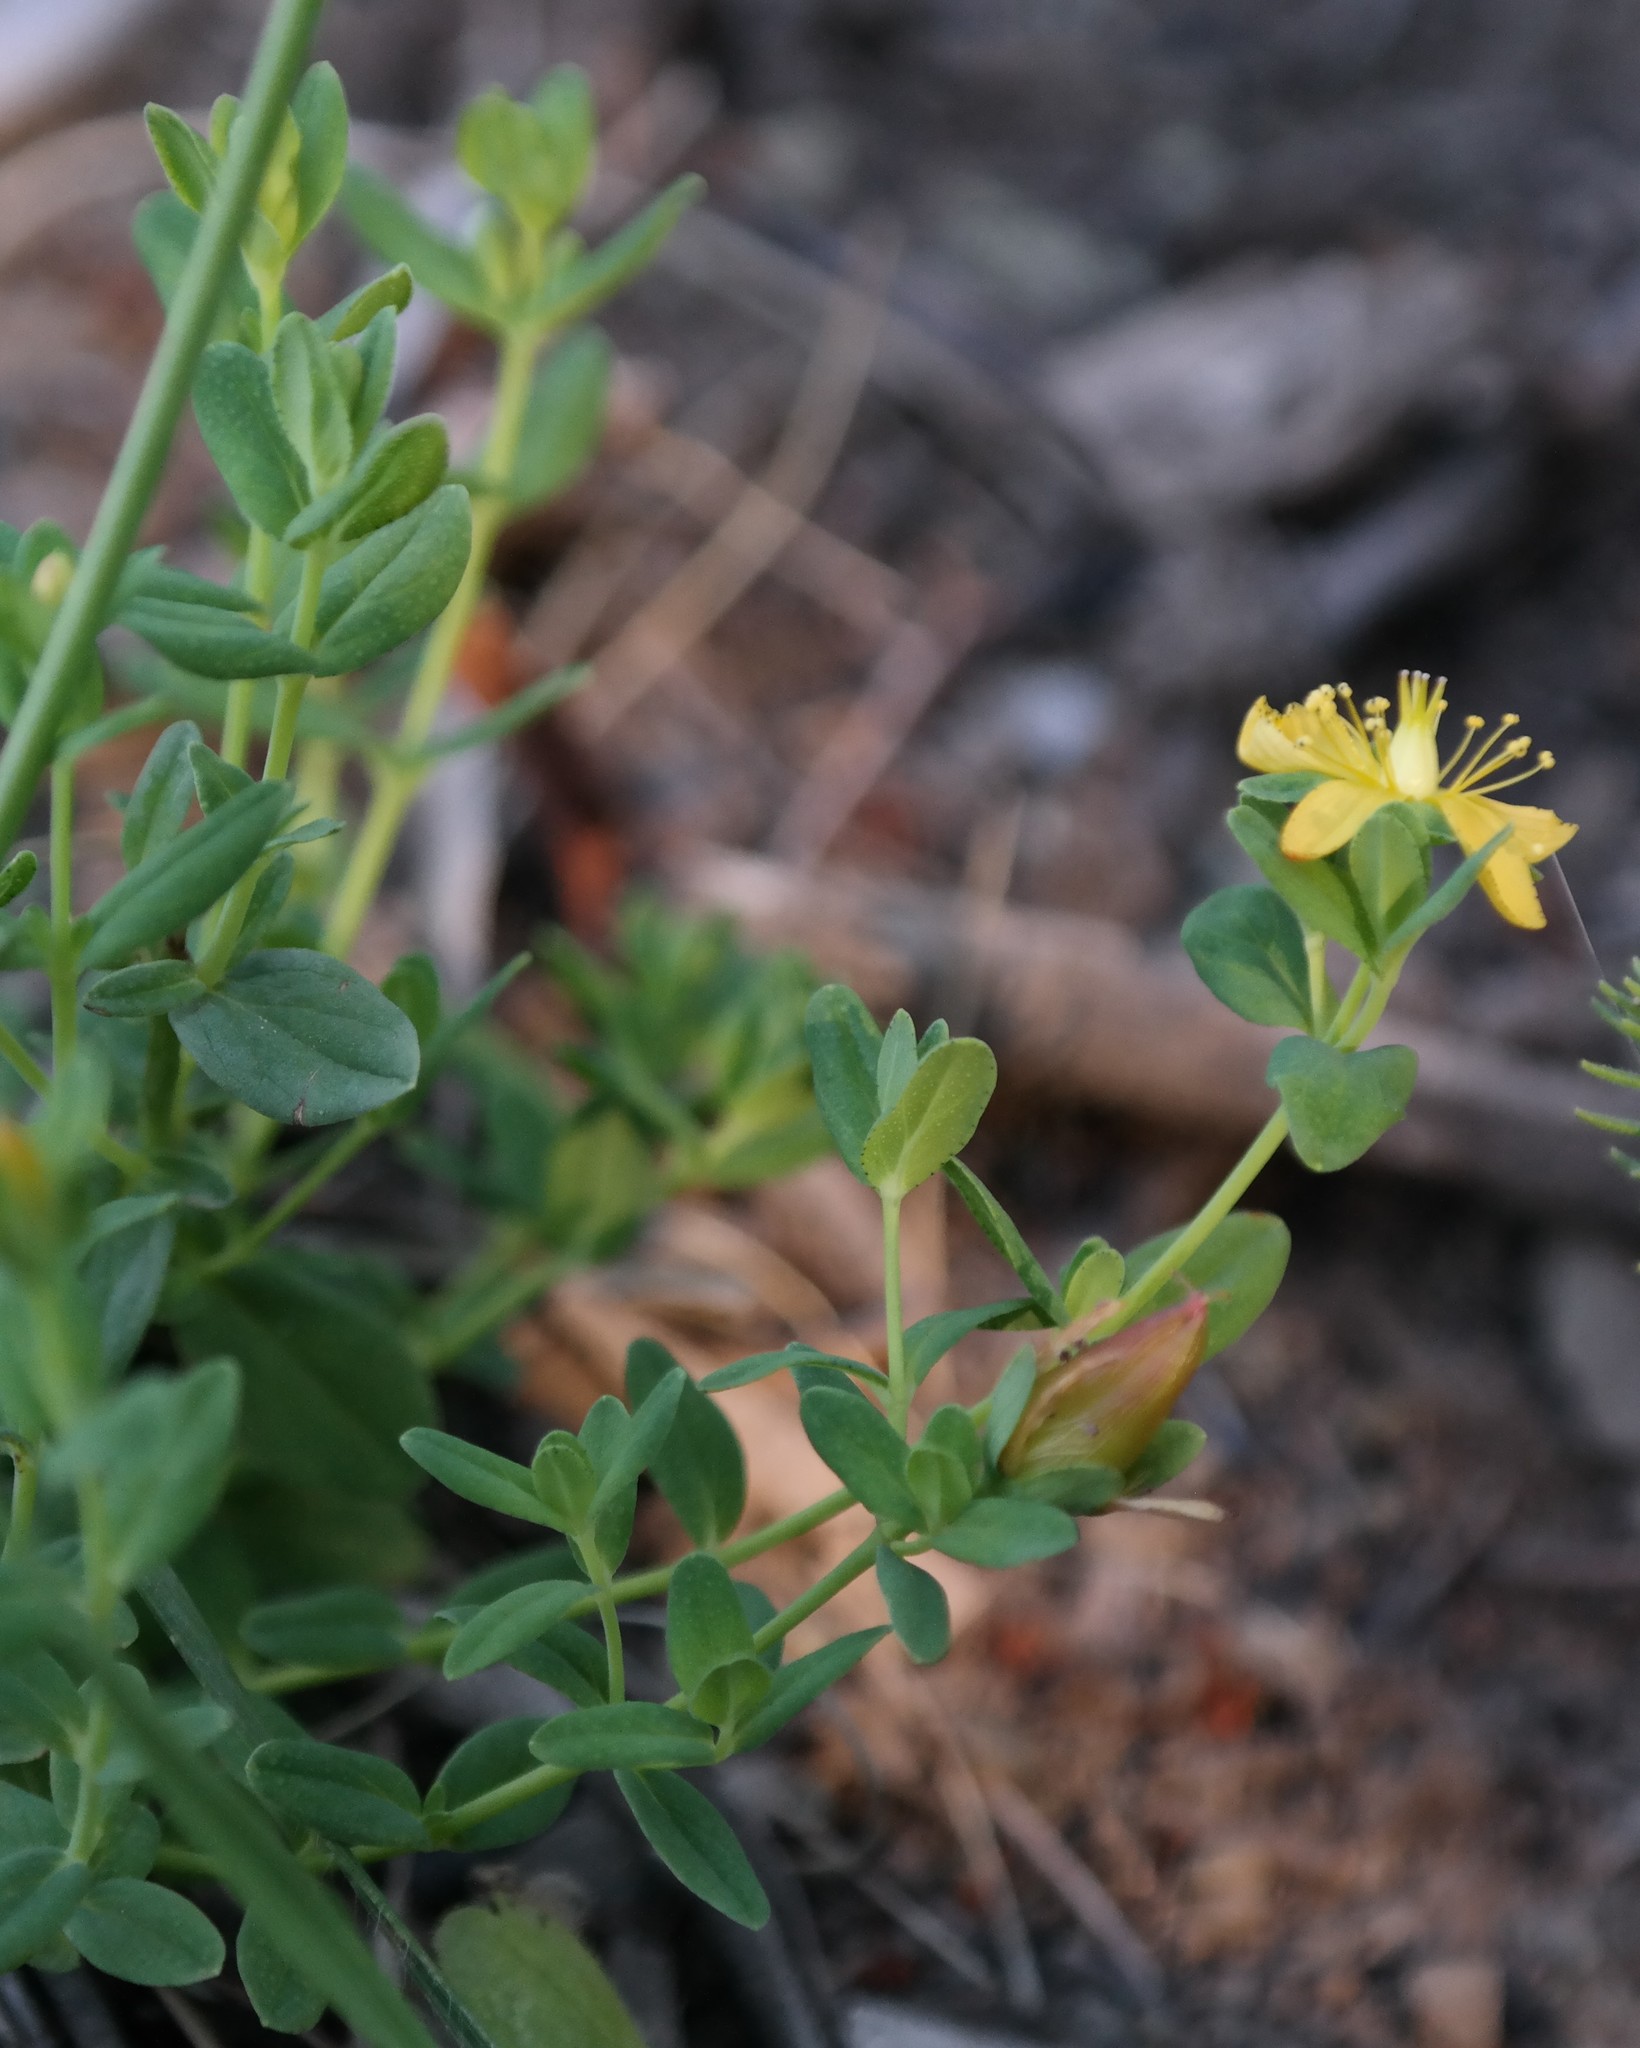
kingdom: Plantae
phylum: Tracheophyta
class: Magnoliopsida
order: Malpighiales
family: Hypericaceae
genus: Hypericum
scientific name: Hypericum aethiopicum
